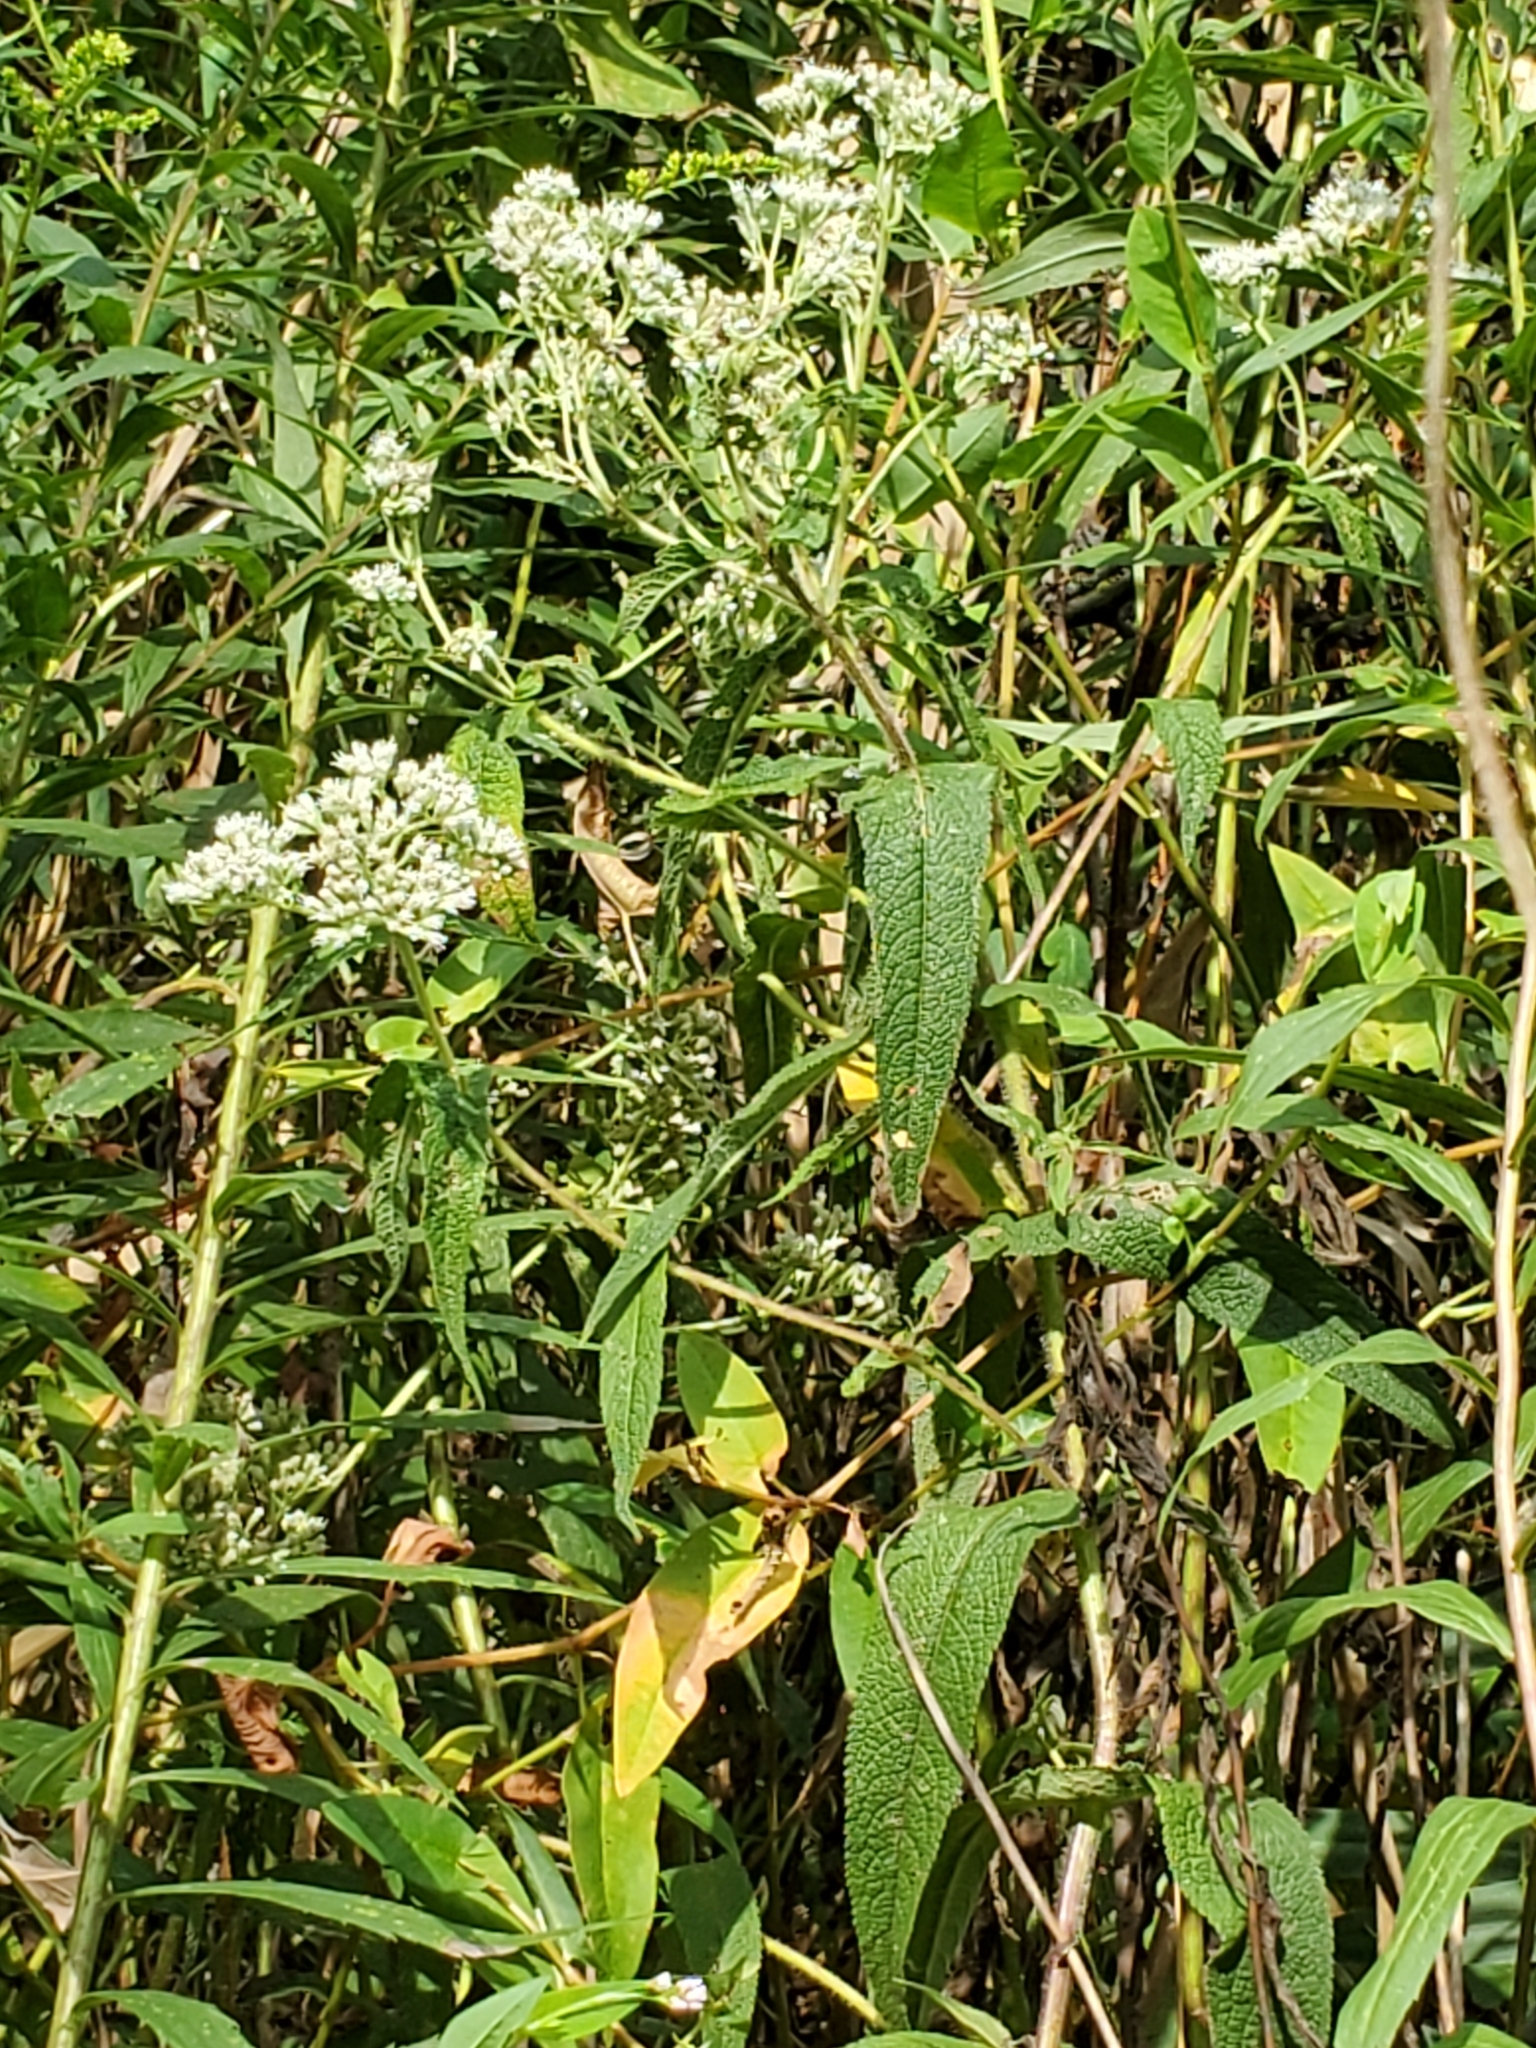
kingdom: Plantae
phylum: Tracheophyta
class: Magnoliopsida
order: Asterales
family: Asteraceae
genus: Eupatorium
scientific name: Eupatorium perfoliatum
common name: Boneset
